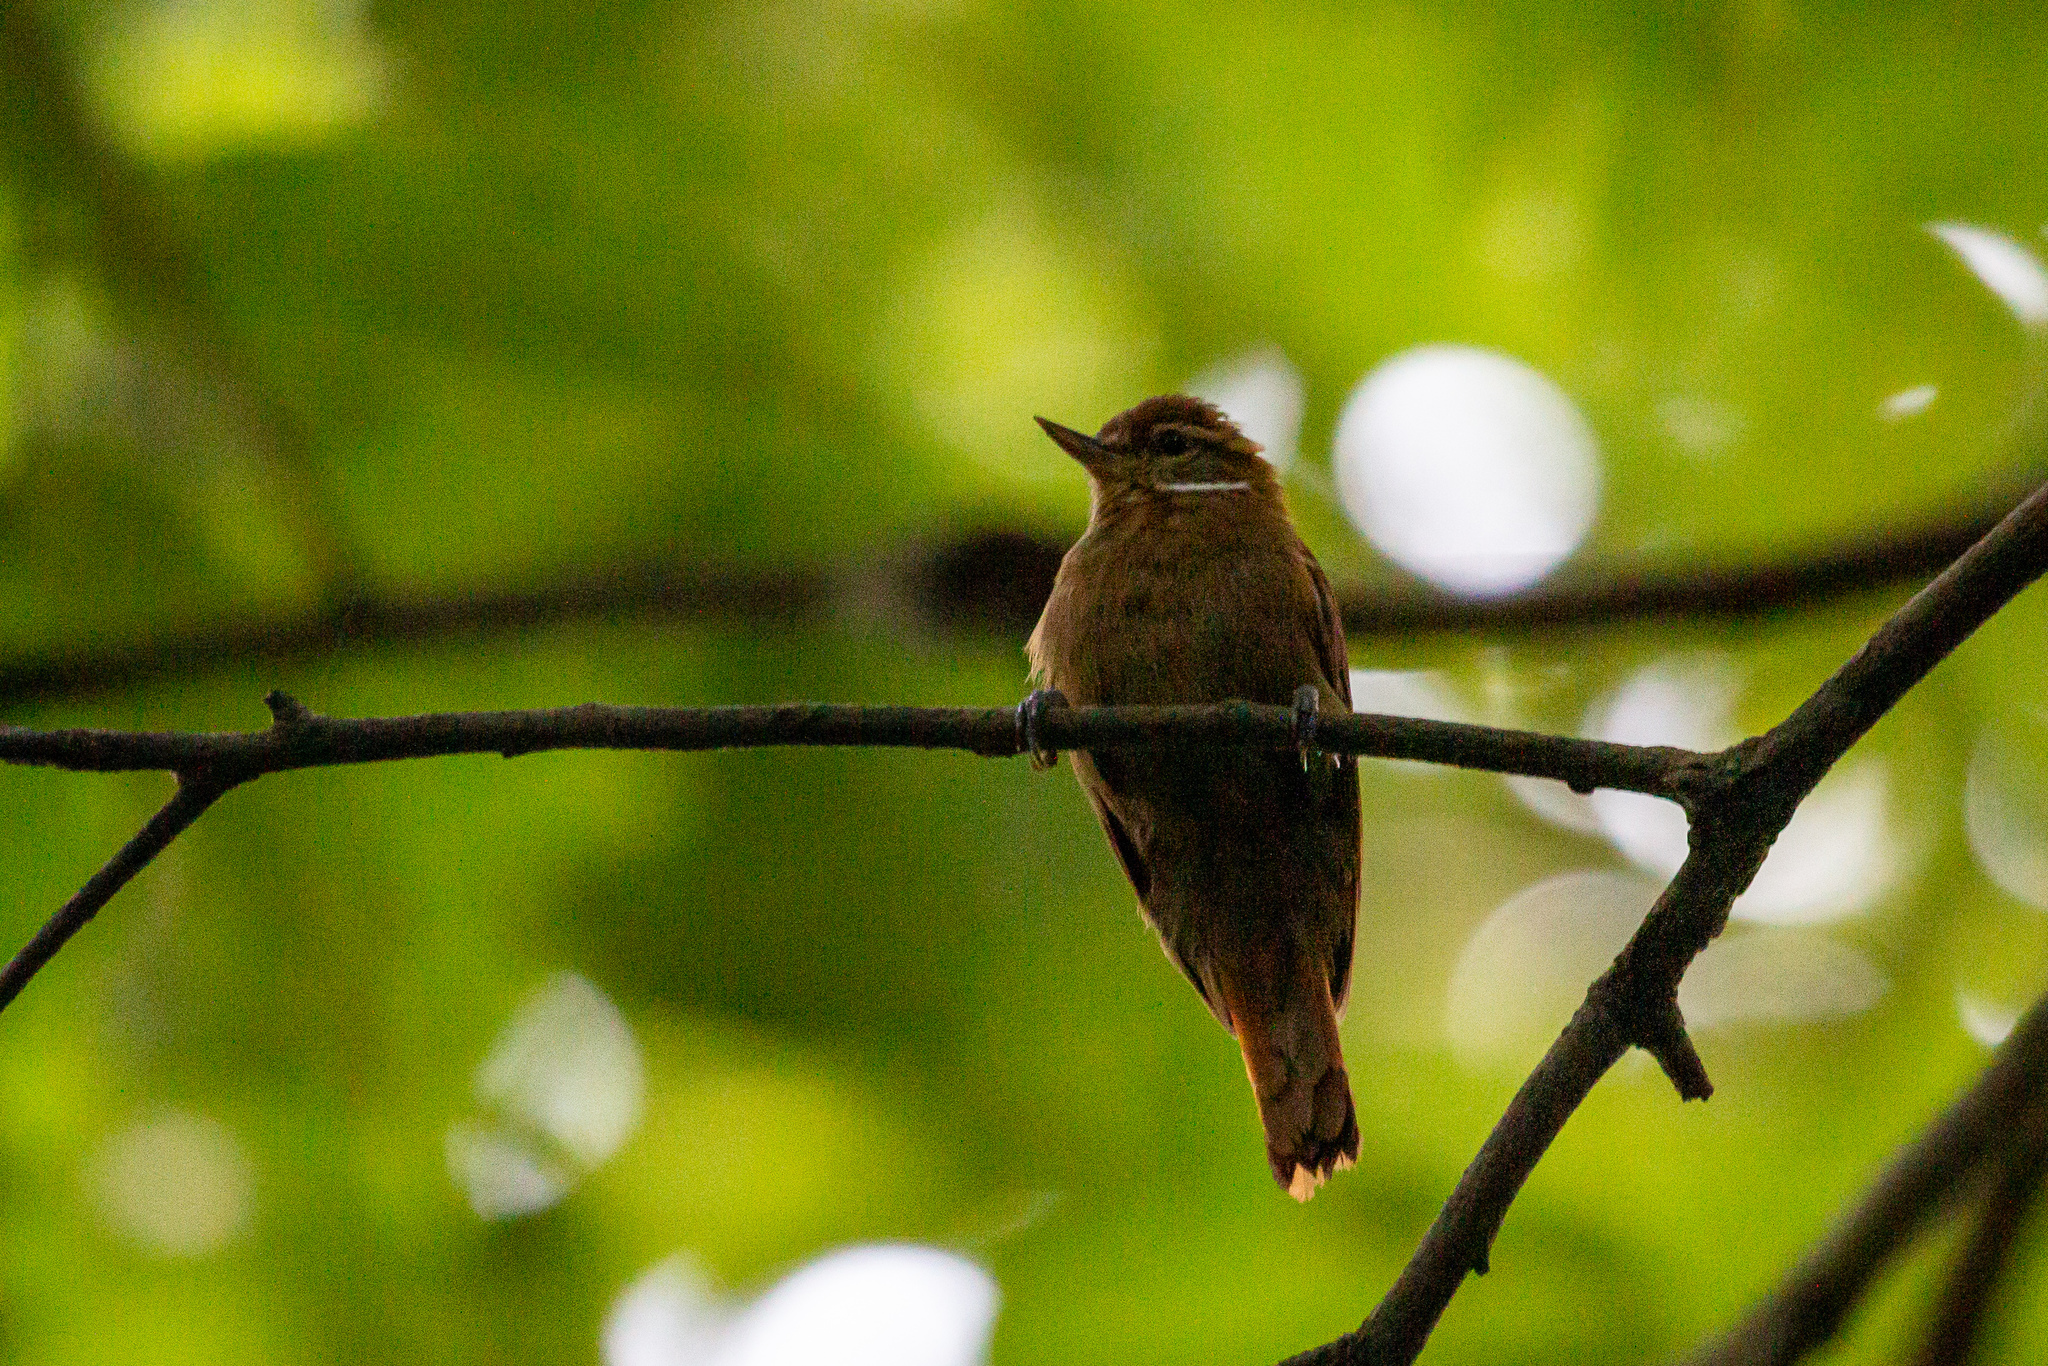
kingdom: Animalia
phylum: Chordata
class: Aves
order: Passeriformes
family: Furnariidae
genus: Xenops
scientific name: Xenops minutus
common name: Plain xenops
